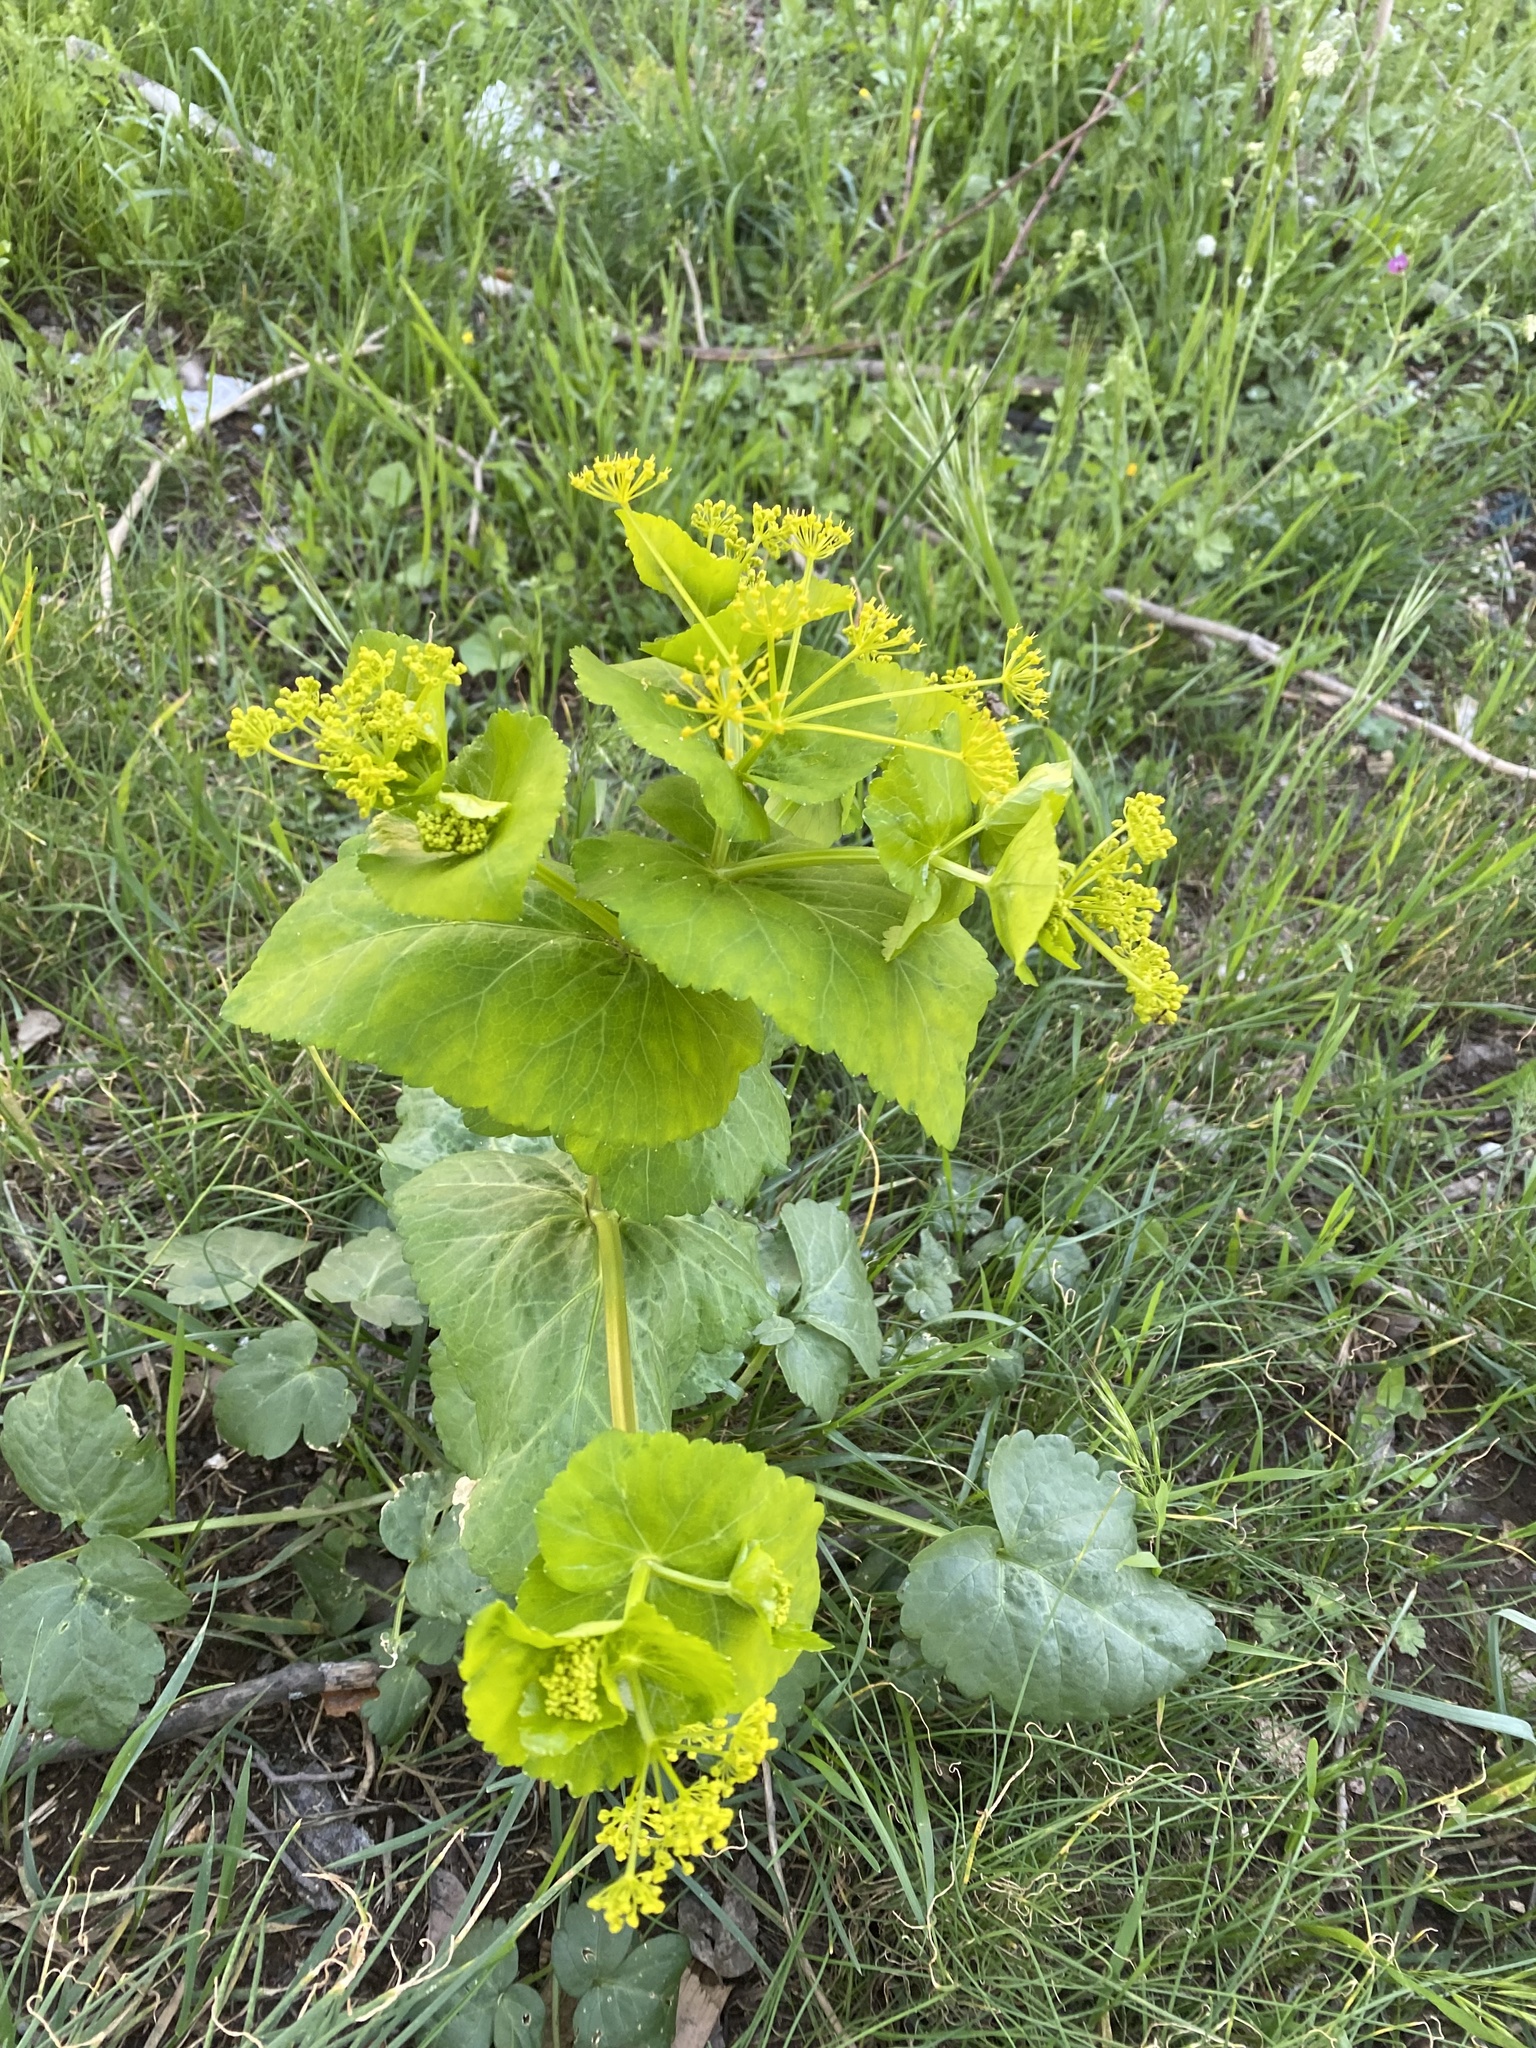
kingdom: Plantae
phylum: Tracheophyta
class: Magnoliopsida
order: Apiales
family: Apiaceae
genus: Smyrnium
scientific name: Smyrnium perfoliatum
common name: Perfoliate alexanders
